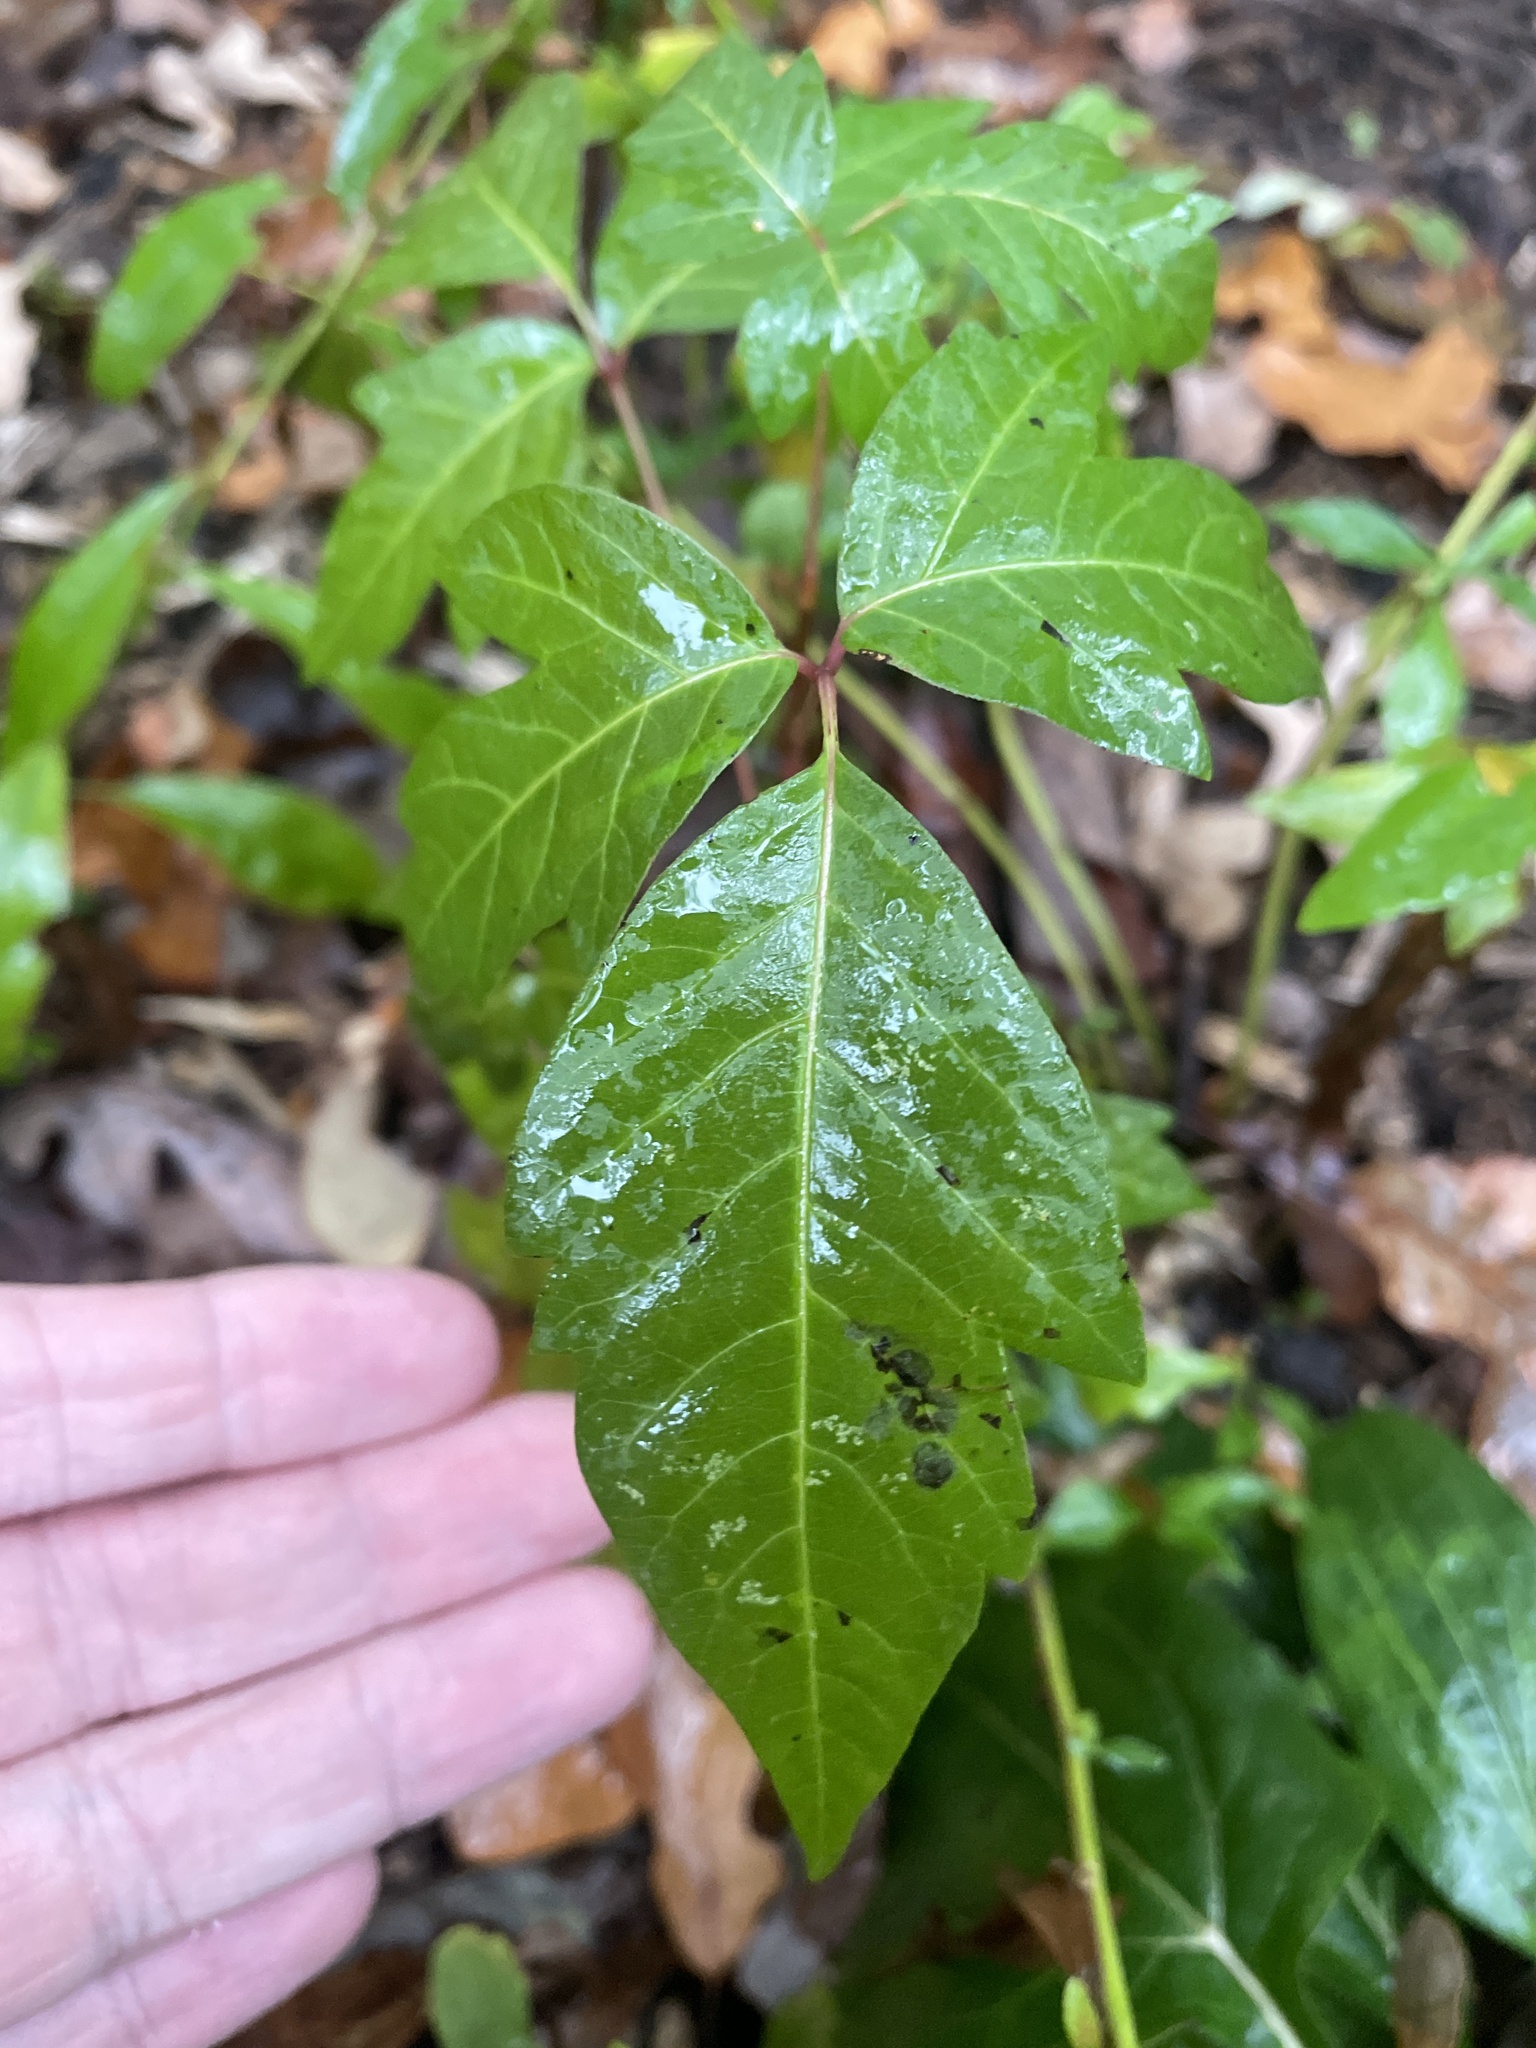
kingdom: Plantae
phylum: Tracheophyta
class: Magnoliopsida
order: Sapindales
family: Anacardiaceae
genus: Toxicodendron
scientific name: Toxicodendron radicans
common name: Poison ivy
